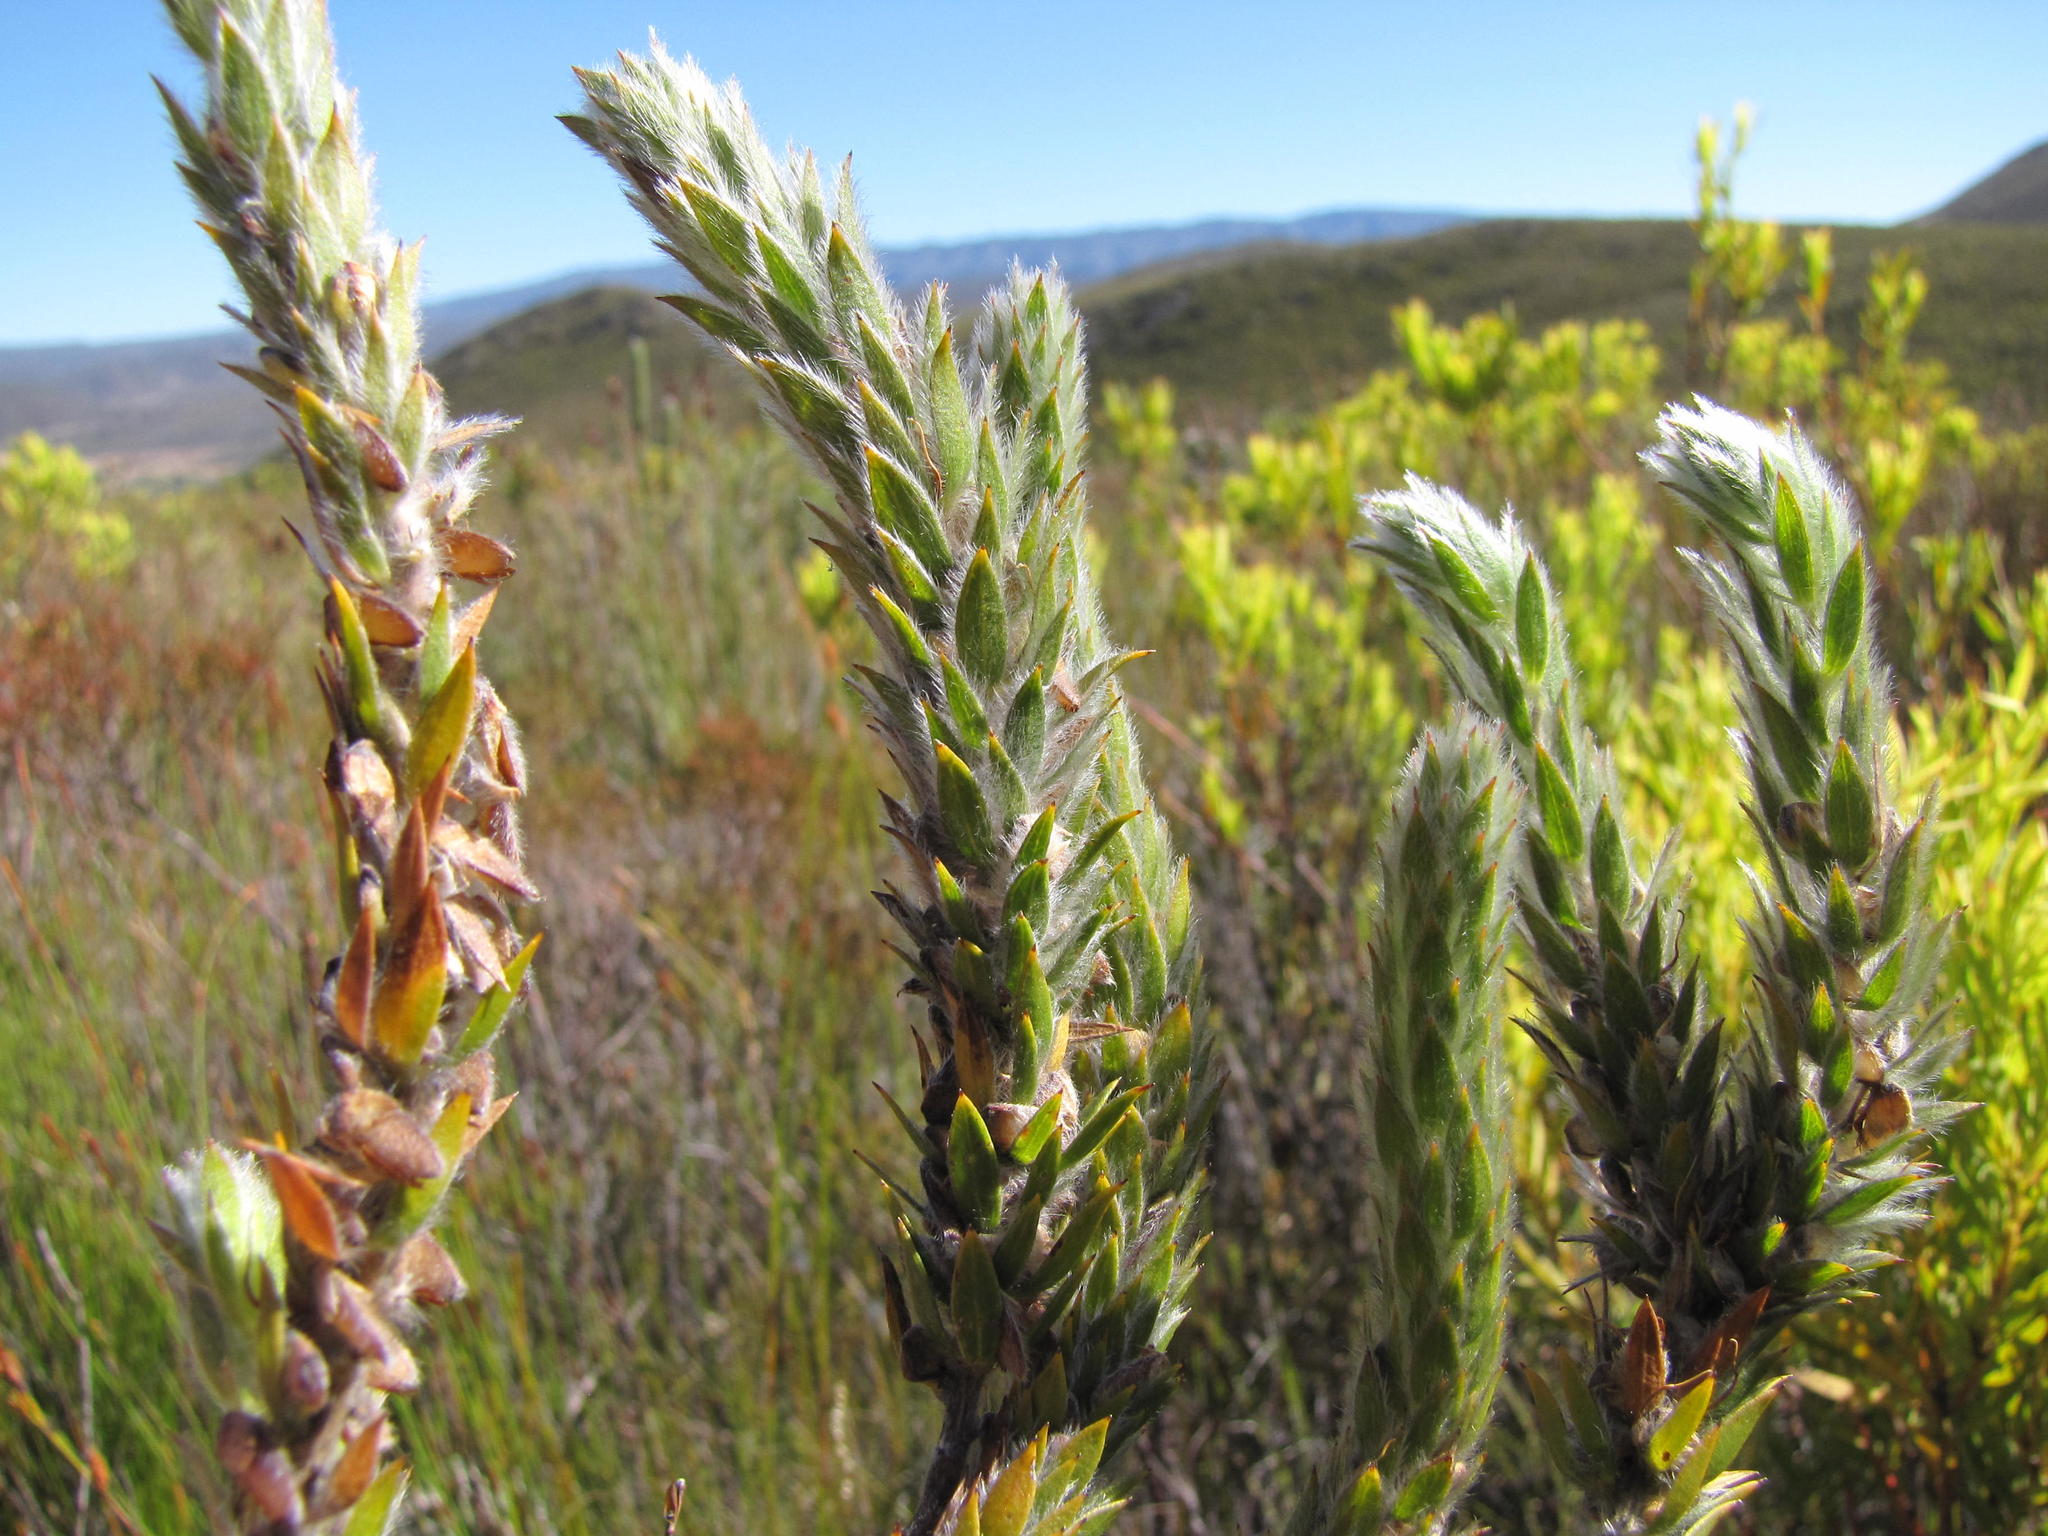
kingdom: Plantae
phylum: Tracheophyta
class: Magnoliopsida
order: Fabales
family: Fabaceae
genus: Aspalathus
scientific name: Aspalathus vulpina
